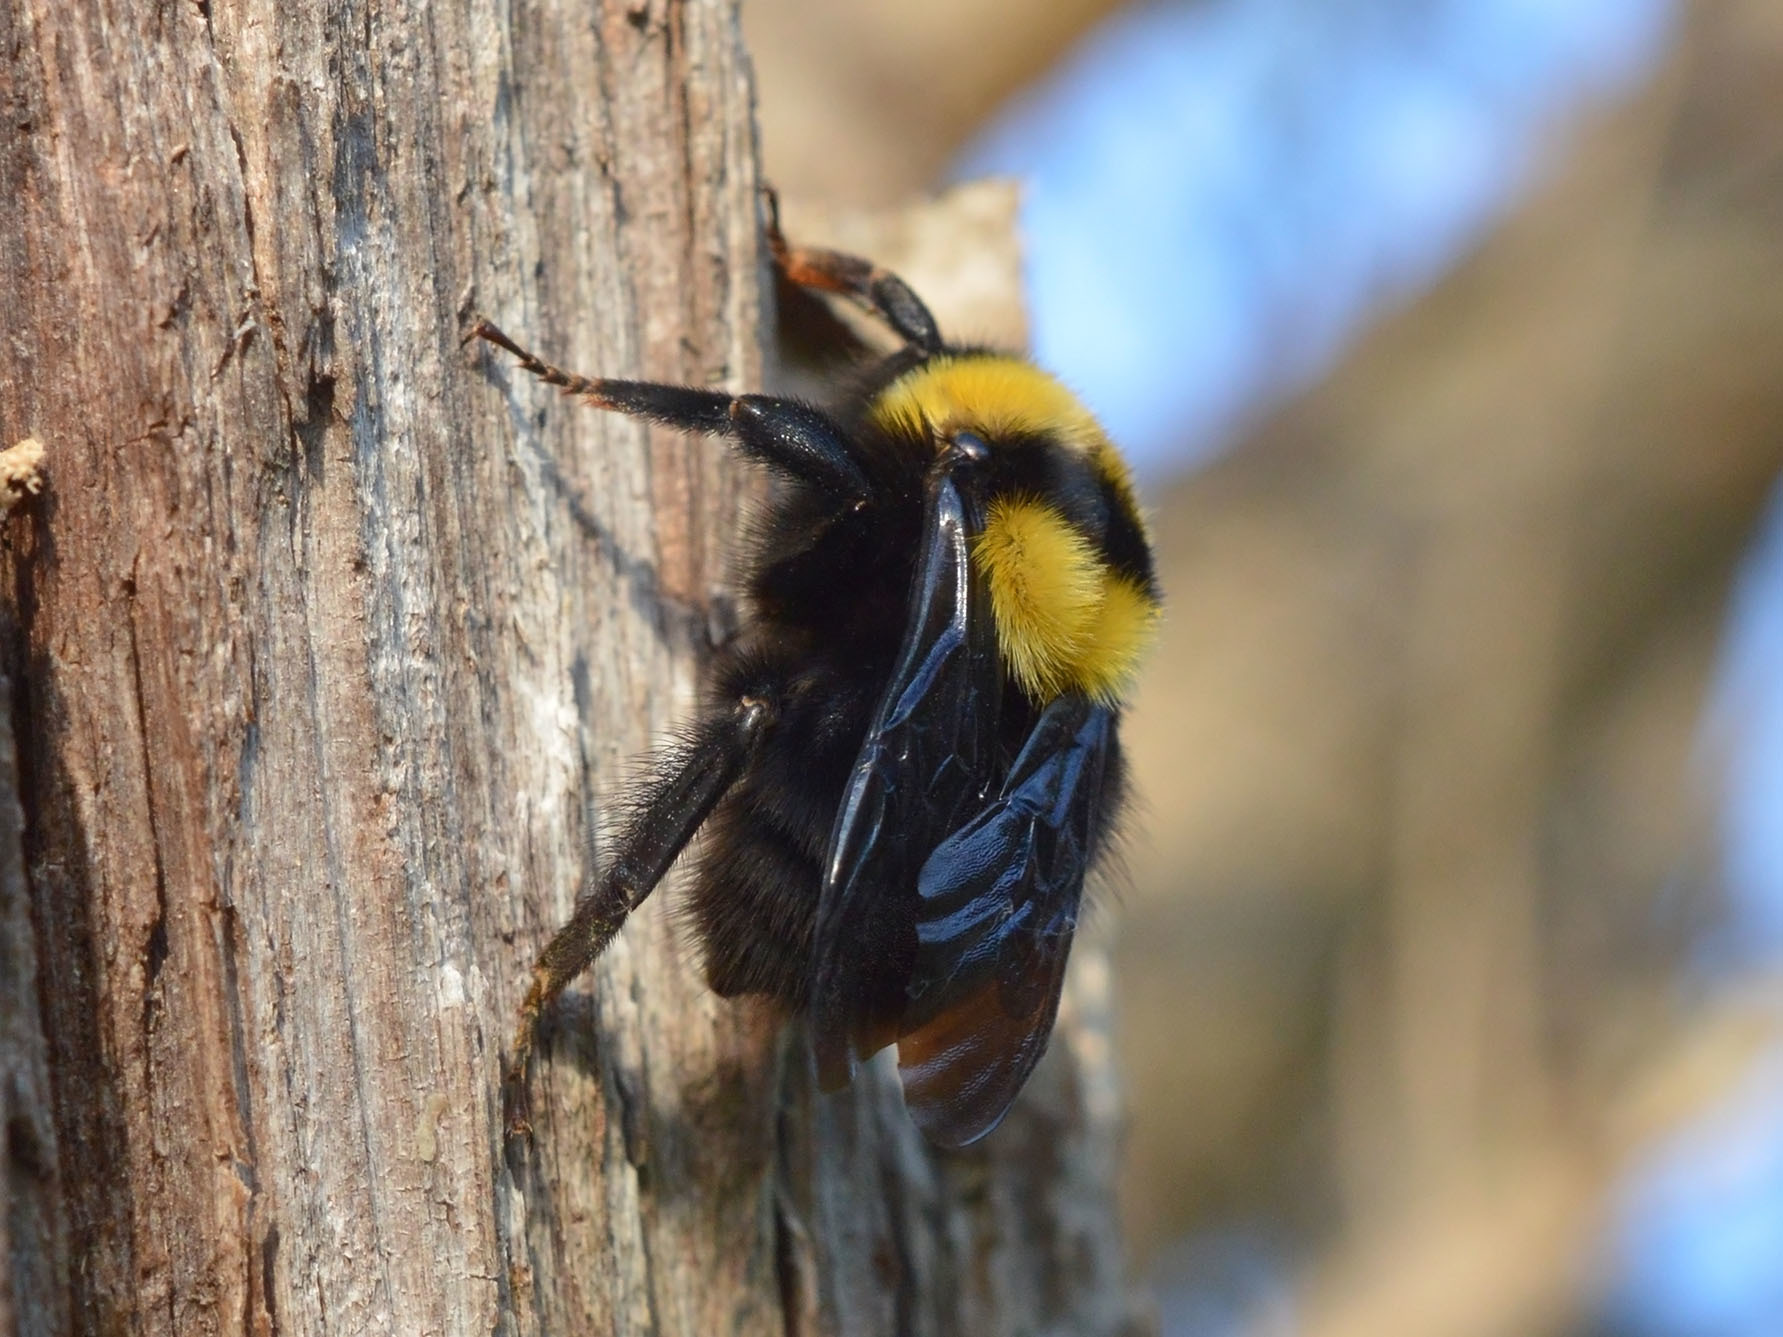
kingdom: Animalia
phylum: Arthropoda
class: Insecta
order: Hymenoptera
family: Apidae
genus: Bombus
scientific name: Bombus argillaceus
